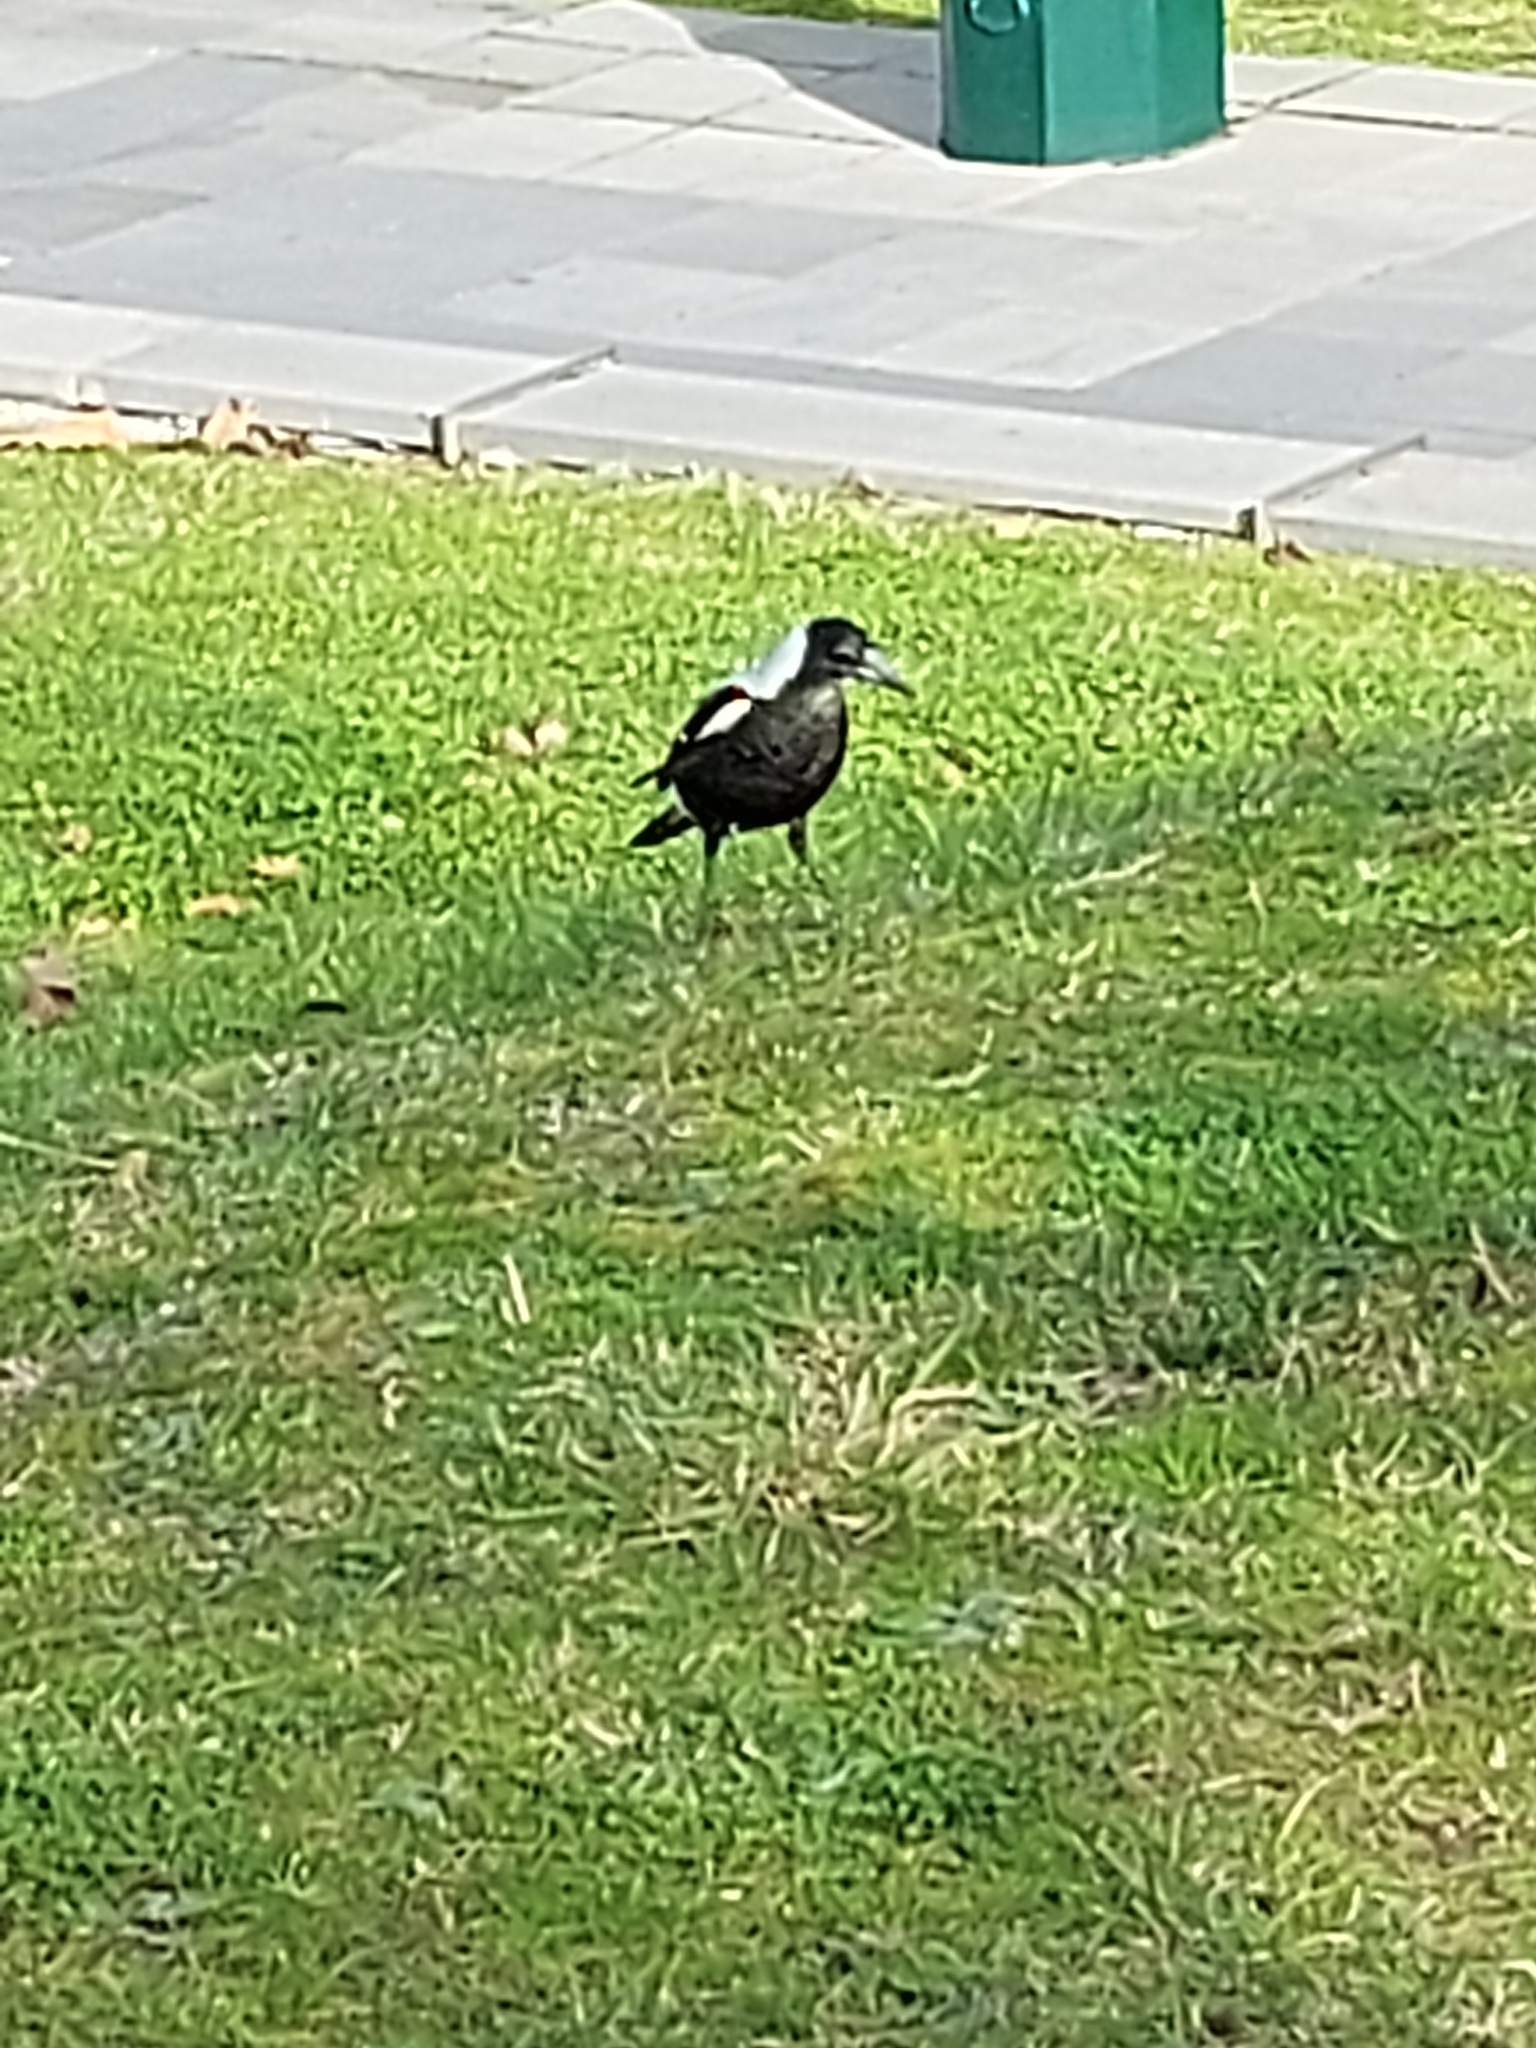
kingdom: Animalia
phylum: Chordata
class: Aves
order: Passeriformes
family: Cracticidae
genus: Gymnorhina
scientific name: Gymnorhina tibicen
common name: Australian magpie
